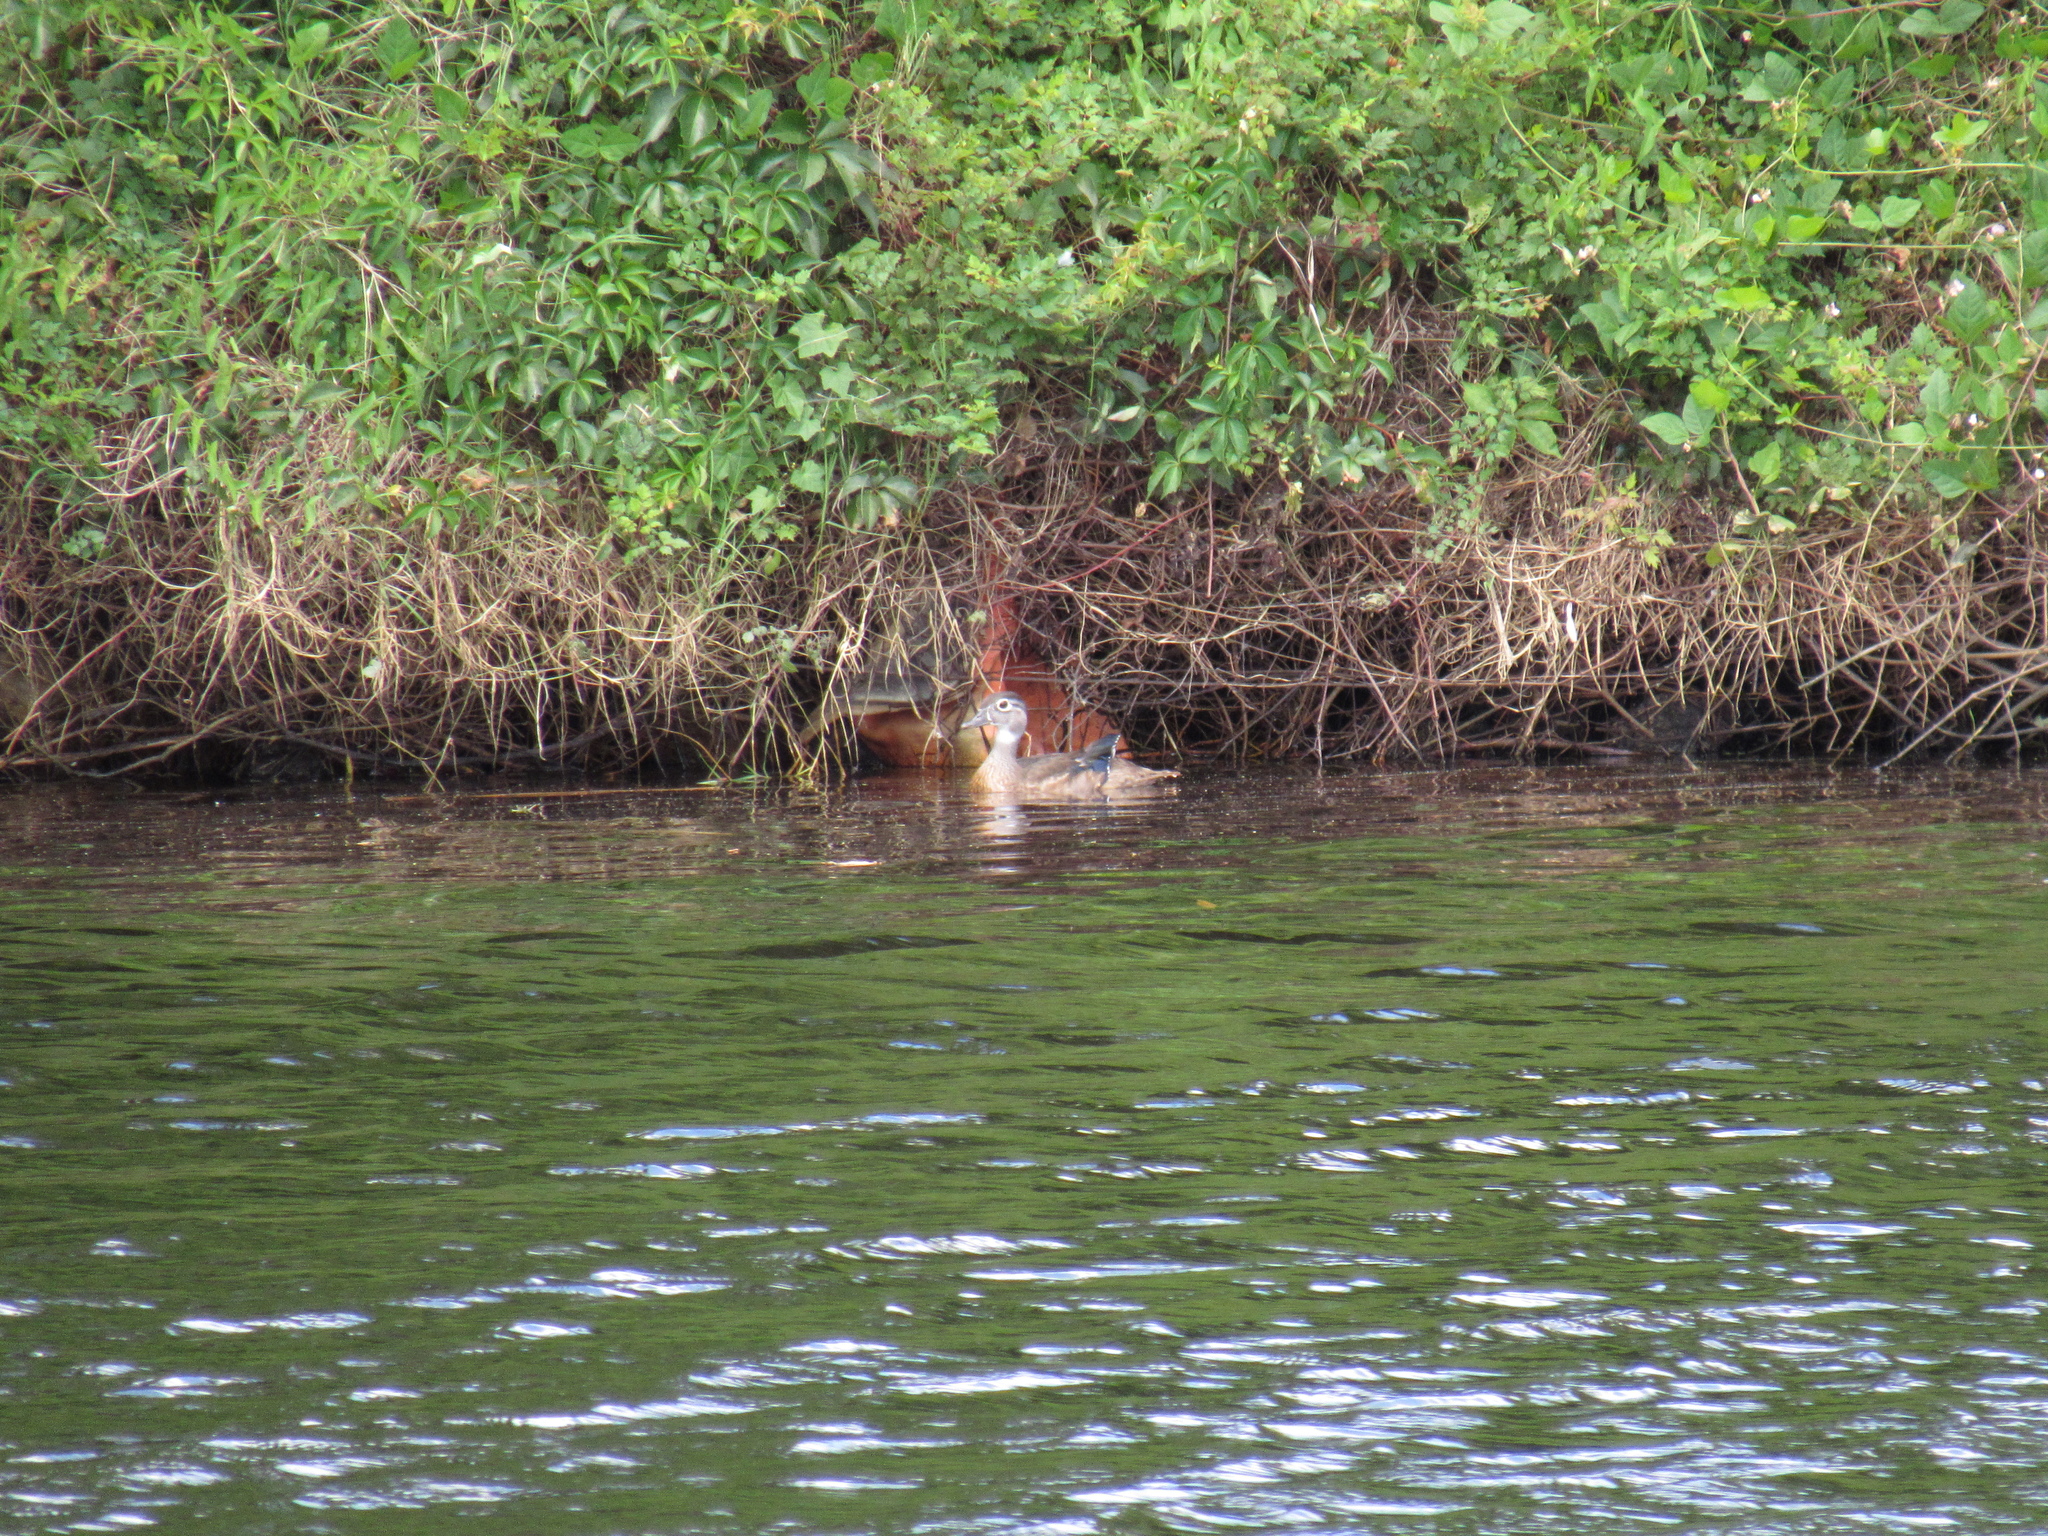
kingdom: Animalia
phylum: Chordata
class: Aves
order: Anseriformes
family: Anatidae
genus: Aix
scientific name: Aix sponsa
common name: Wood duck
